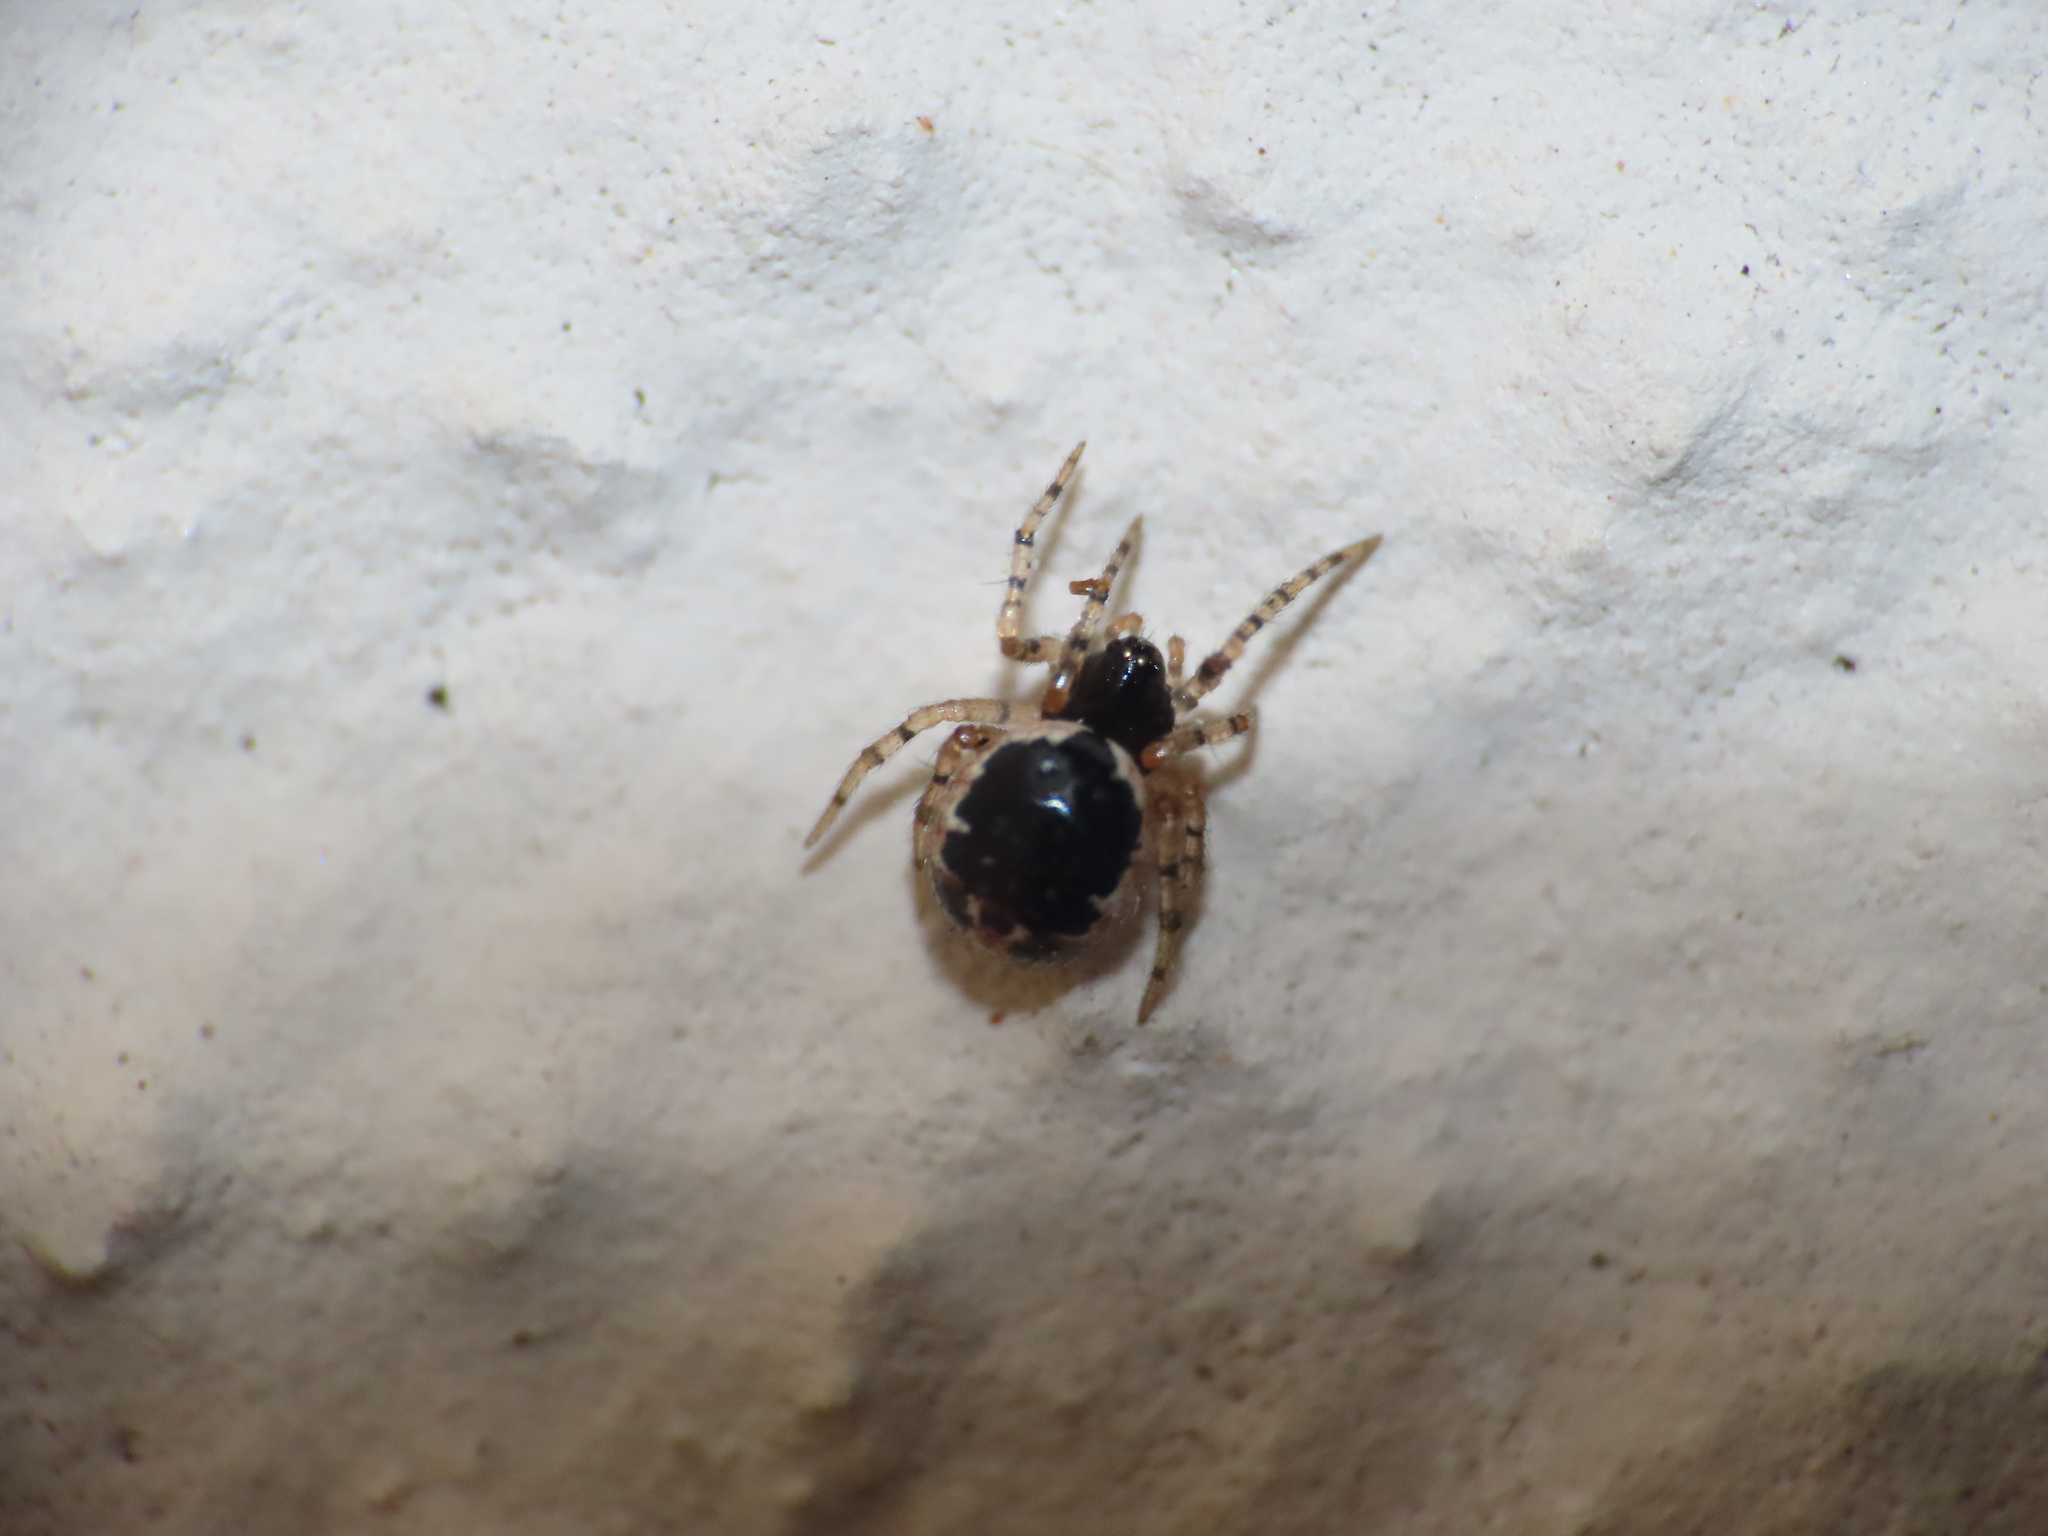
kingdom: Animalia
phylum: Arthropoda
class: Arachnida
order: Araneae
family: Theridiidae
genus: Sardinidion
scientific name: Sardinidion blackwalli
